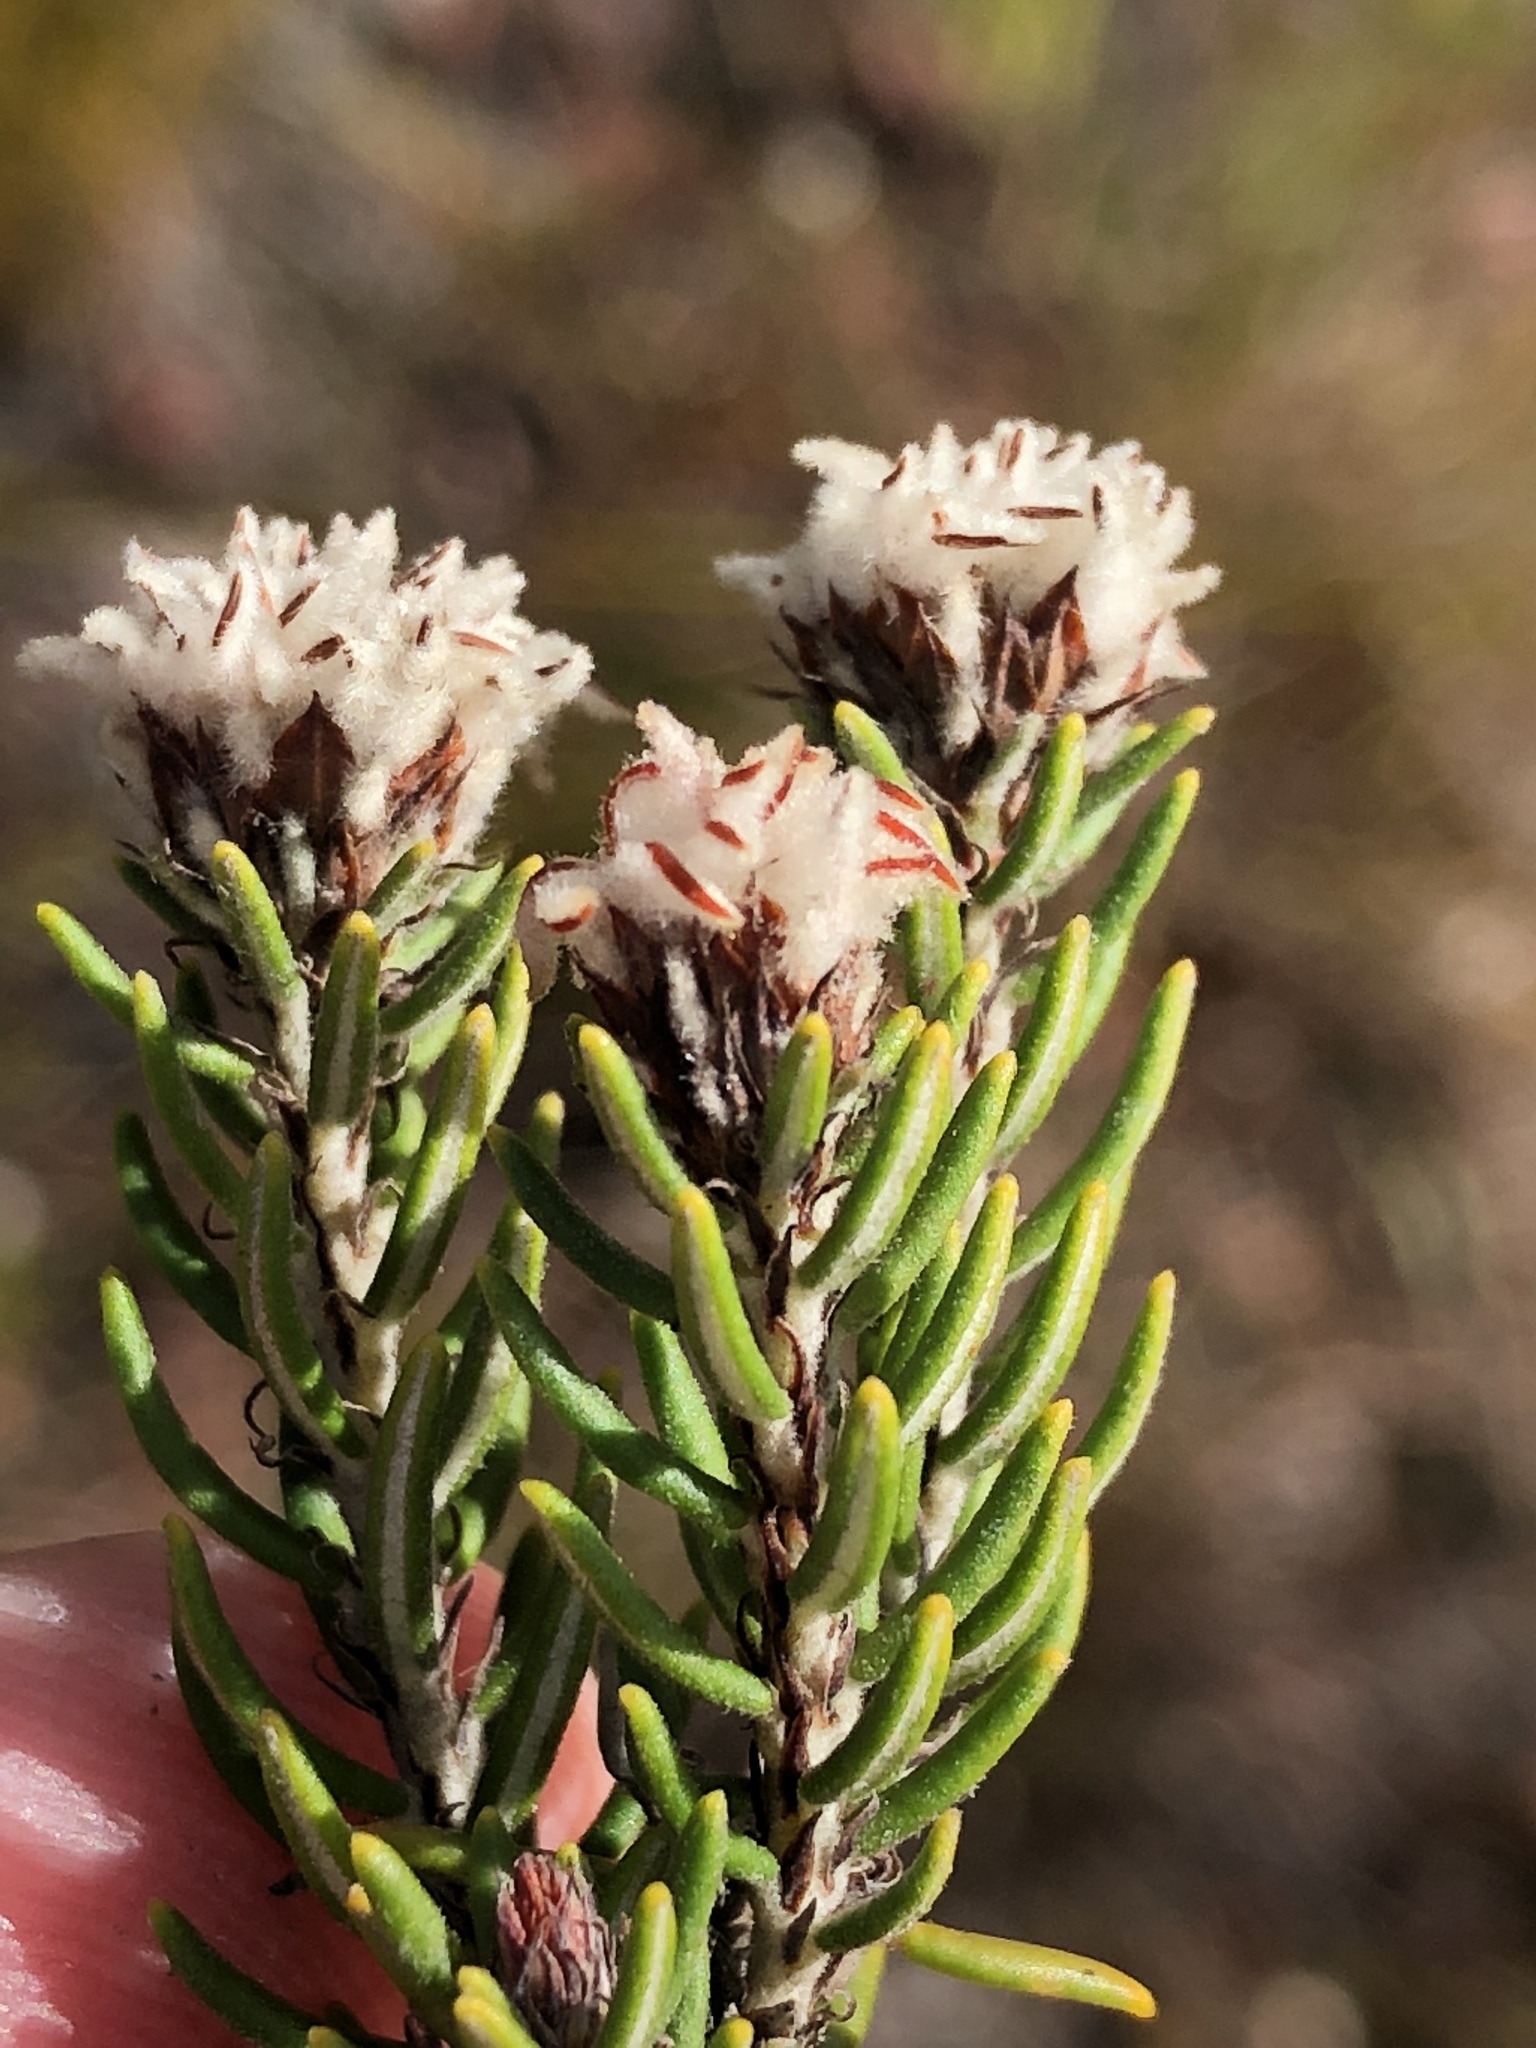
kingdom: Plantae
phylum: Tracheophyta
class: Magnoliopsida
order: Rosales
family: Rhamnaceae
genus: Trichocephalus
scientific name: Trichocephalus stipularis
